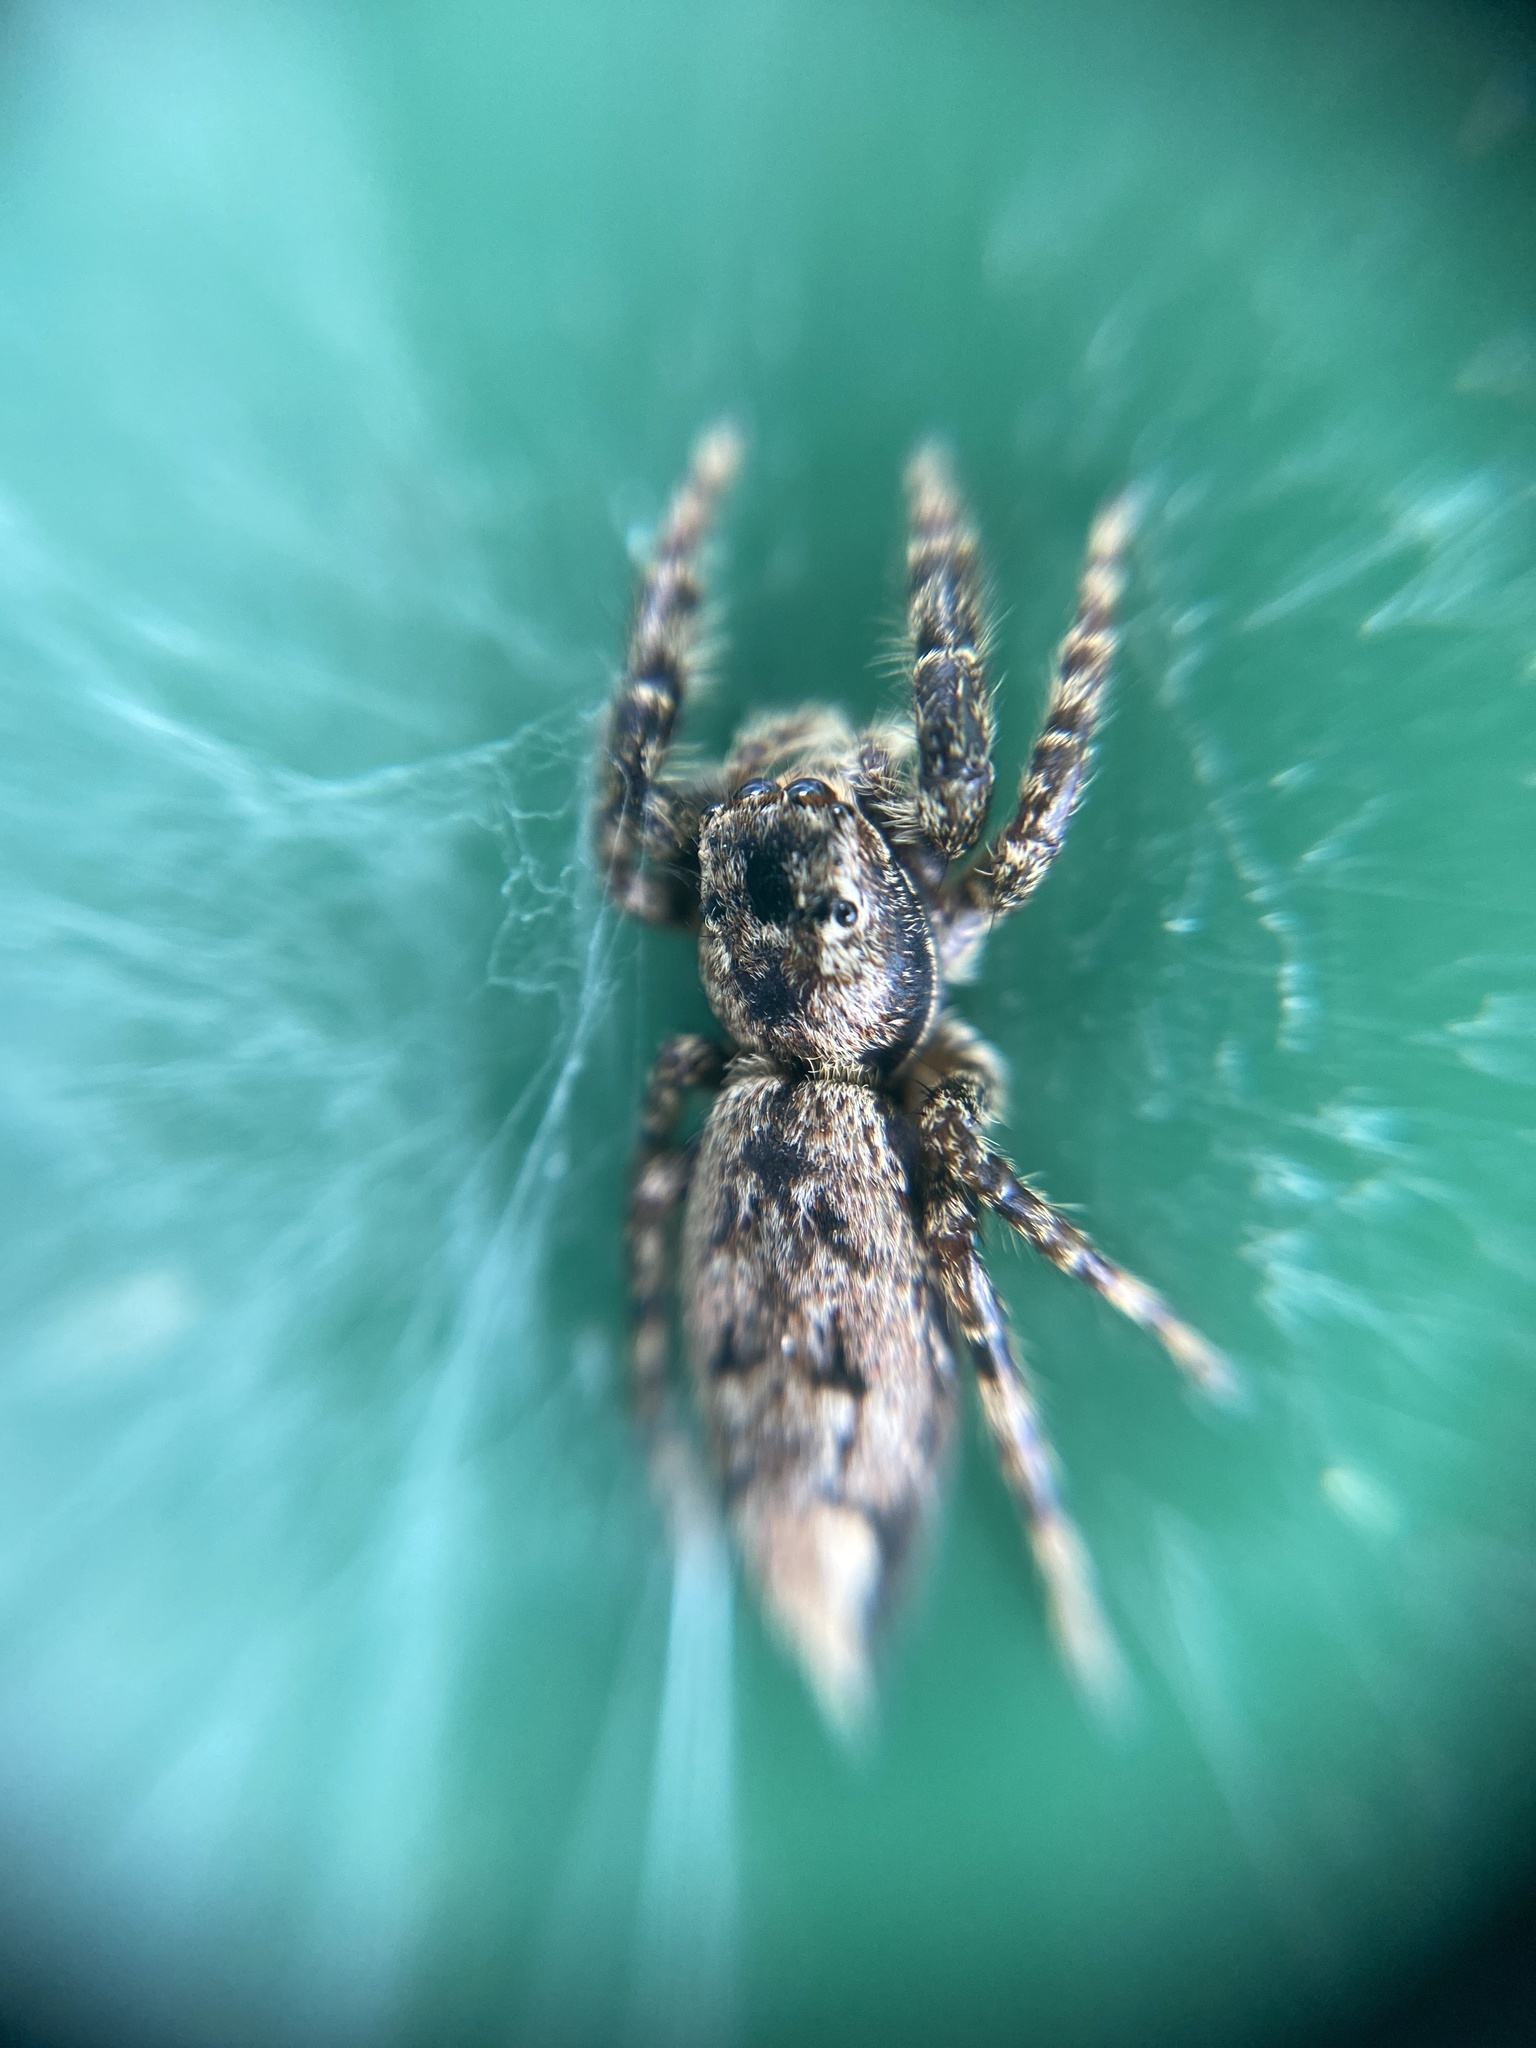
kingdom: Animalia
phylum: Arthropoda
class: Arachnida
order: Araneae
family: Salticidae
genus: Marpissa
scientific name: Marpissa muscosa
